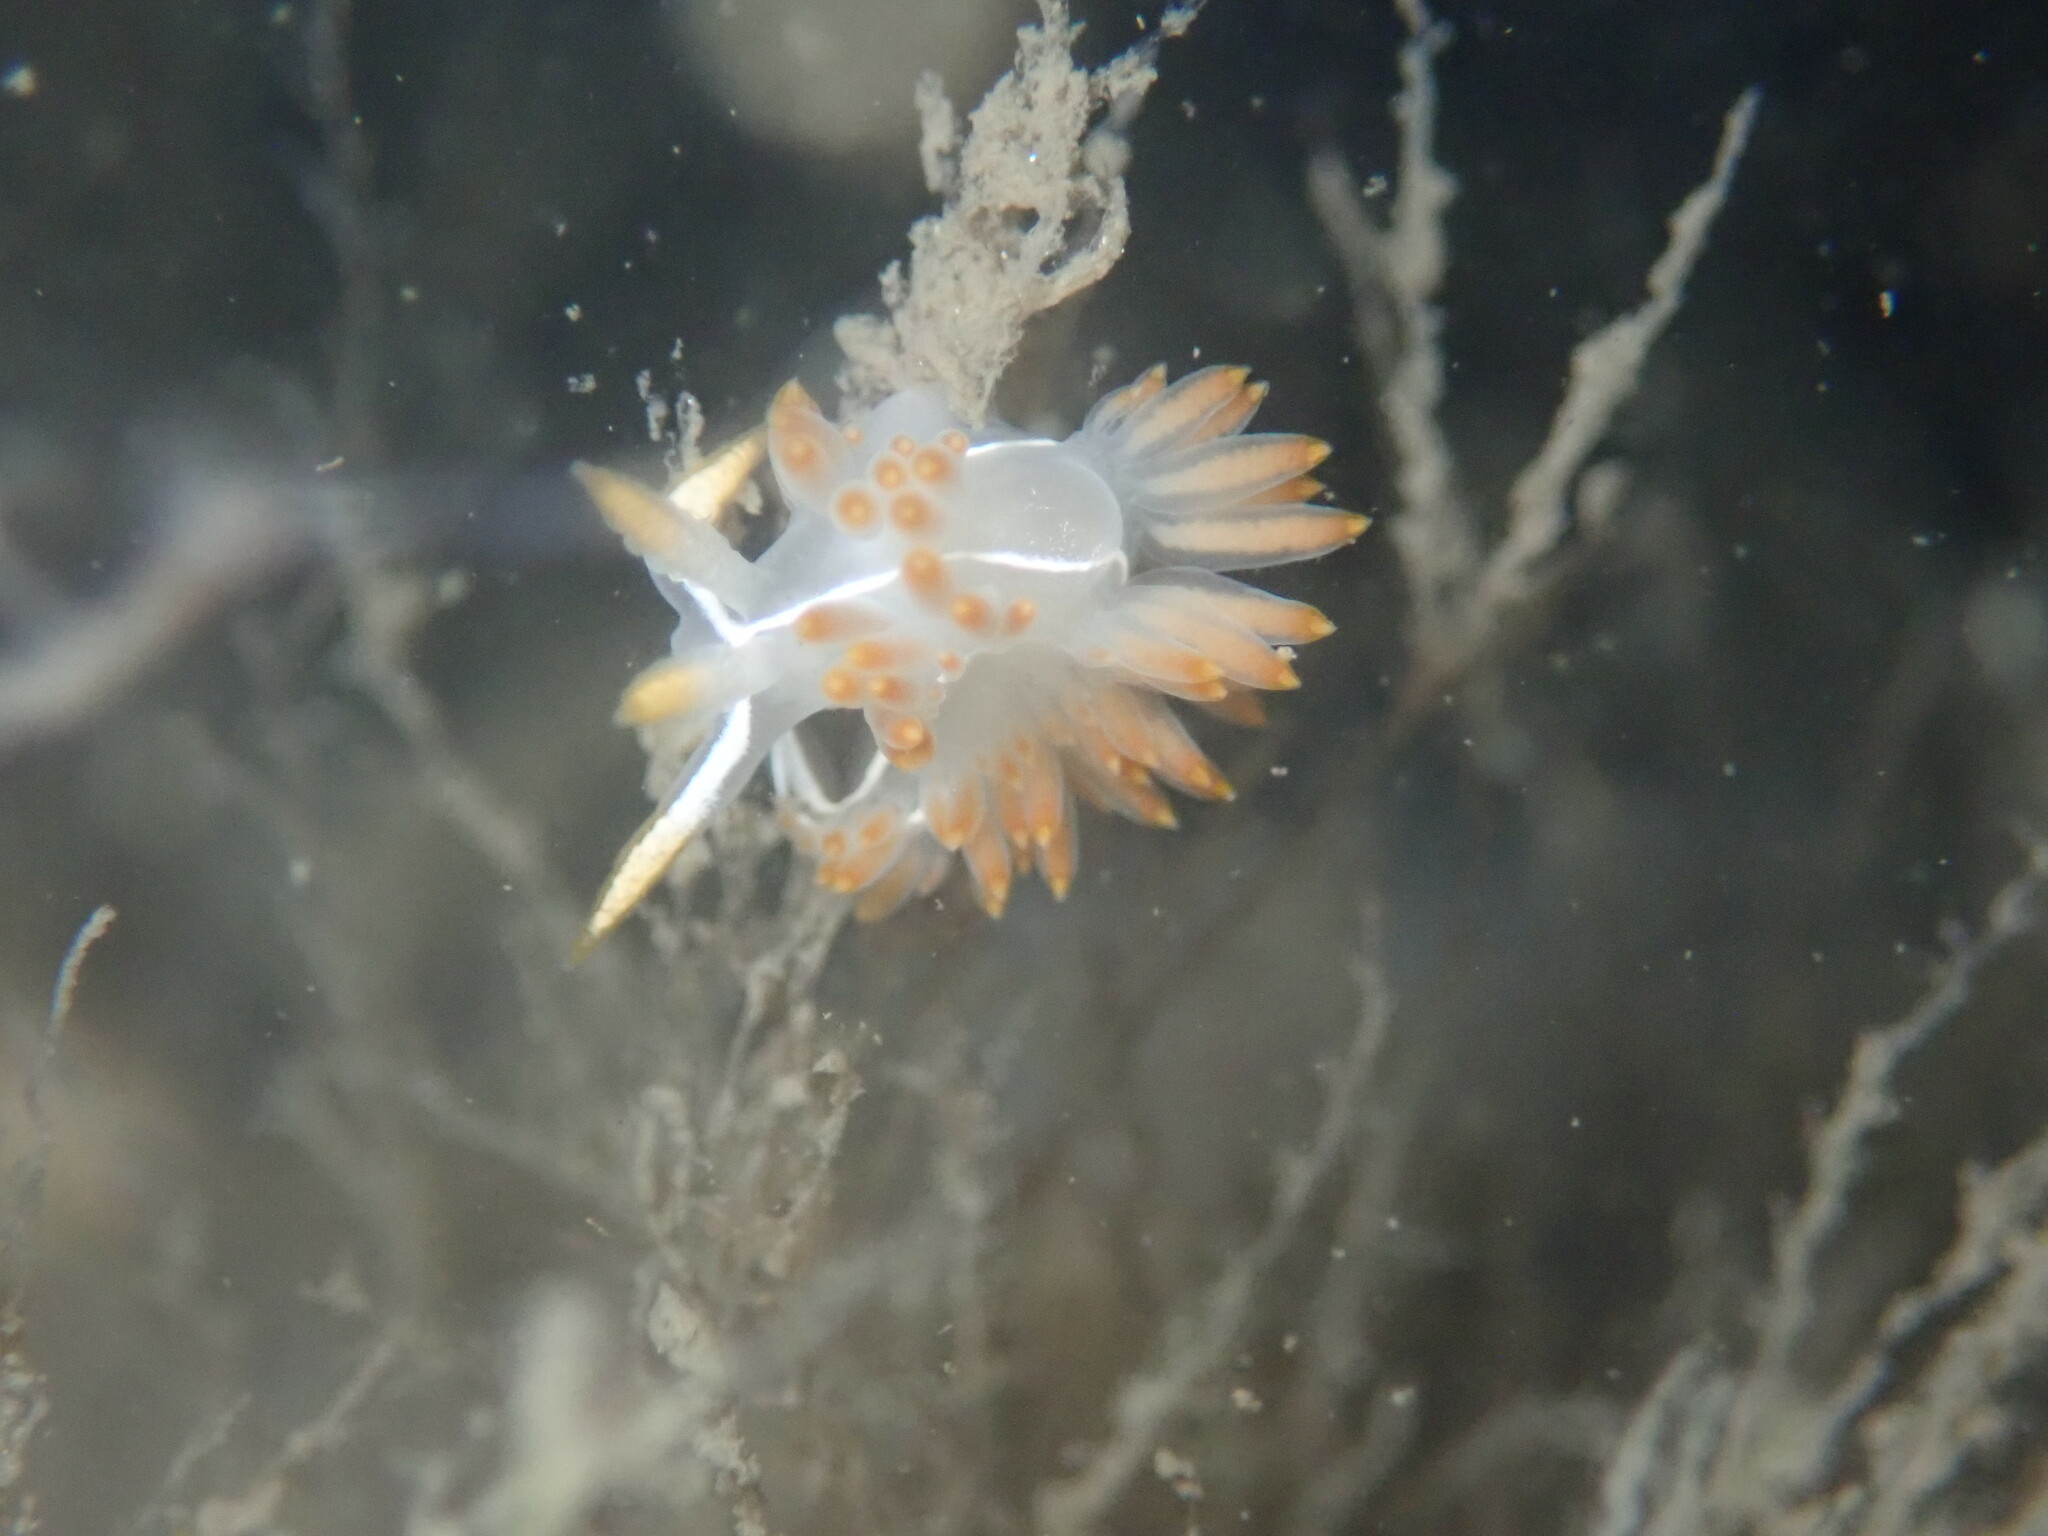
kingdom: Animalia
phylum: Mollusca
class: Gastropoda
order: Nudibranchia
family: Coryphellidae
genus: Coryphella
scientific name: Coryphella trilineata
